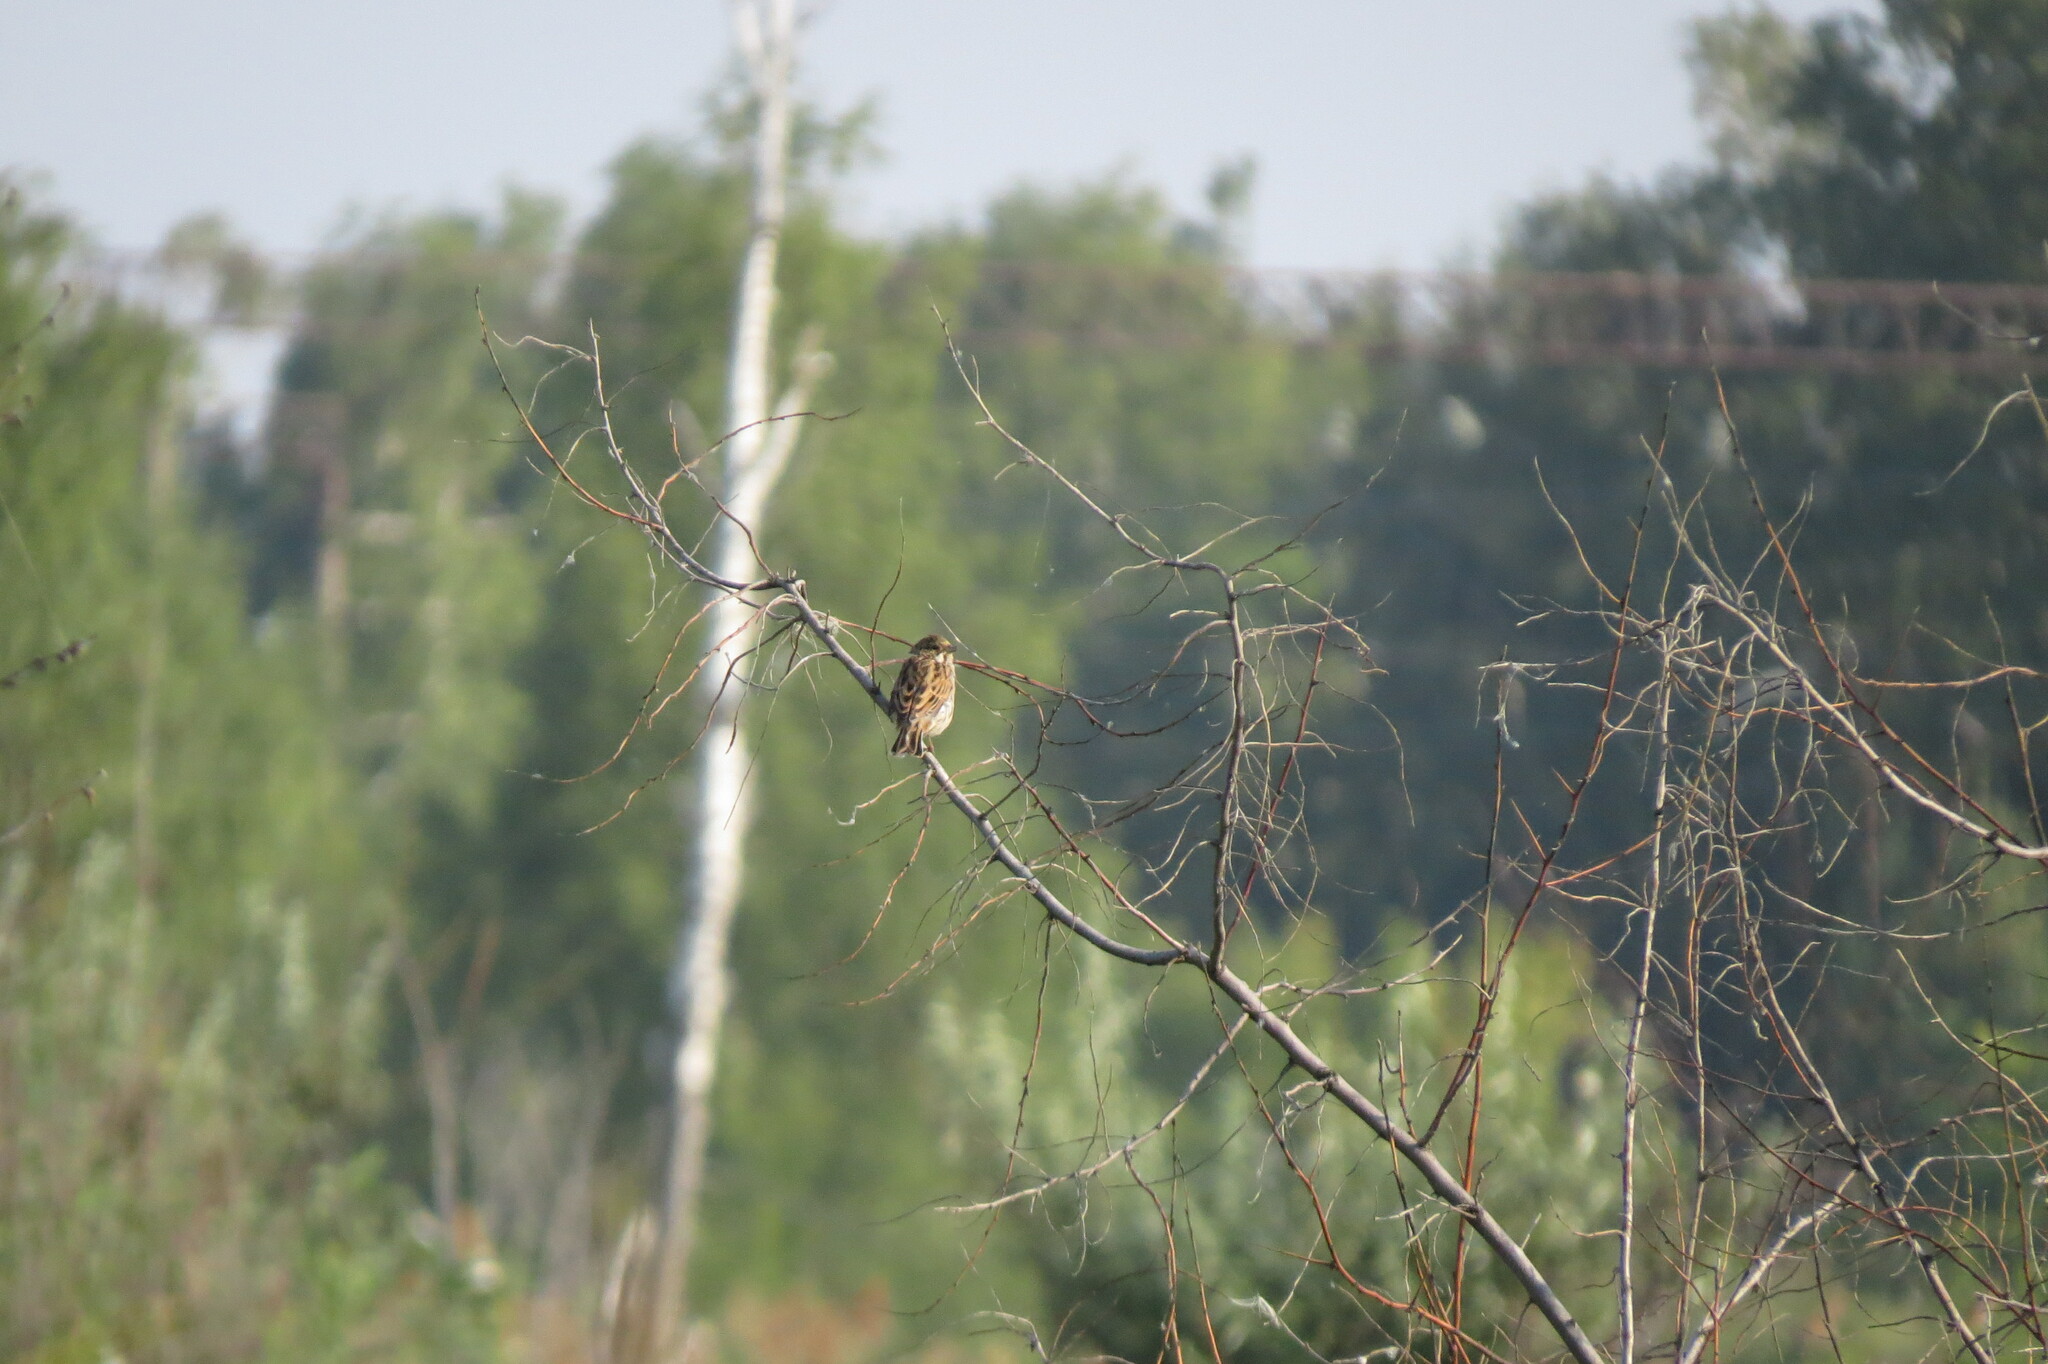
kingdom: Animalia
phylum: Chordata
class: Aves
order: Passeriformes
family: Emberizidae
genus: Emberiza
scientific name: Emberiza schoeniclus
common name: Reed bunting
